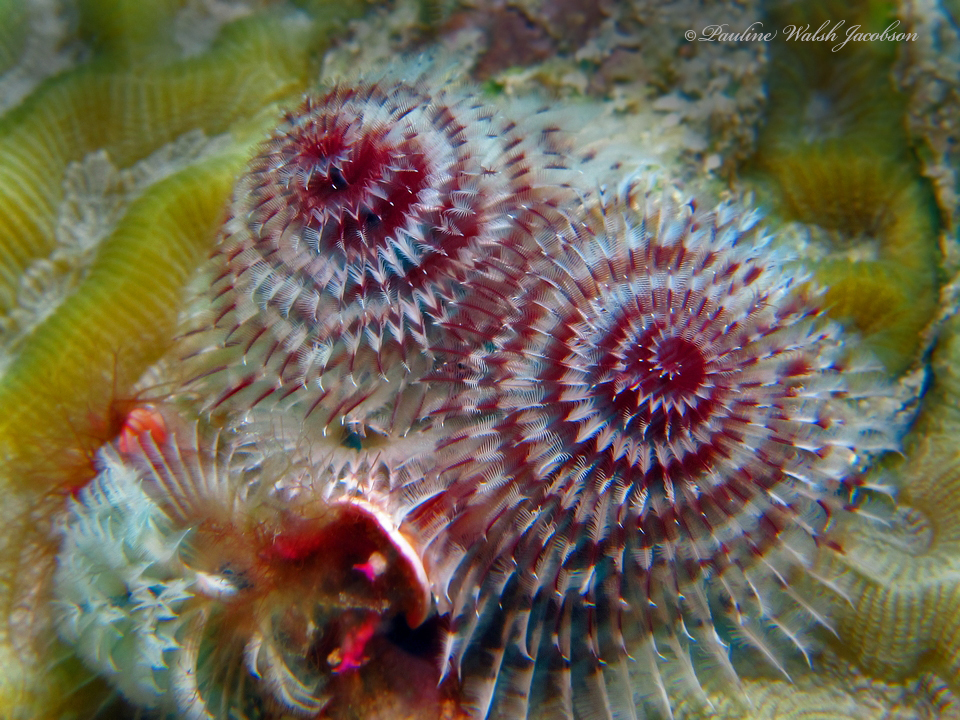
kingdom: Animalia
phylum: Annelida
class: Polychaeta
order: Sabellida
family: Serpulidae
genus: Spirobranchus
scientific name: Spirobranchus giganteus
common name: Christmas tree worm
